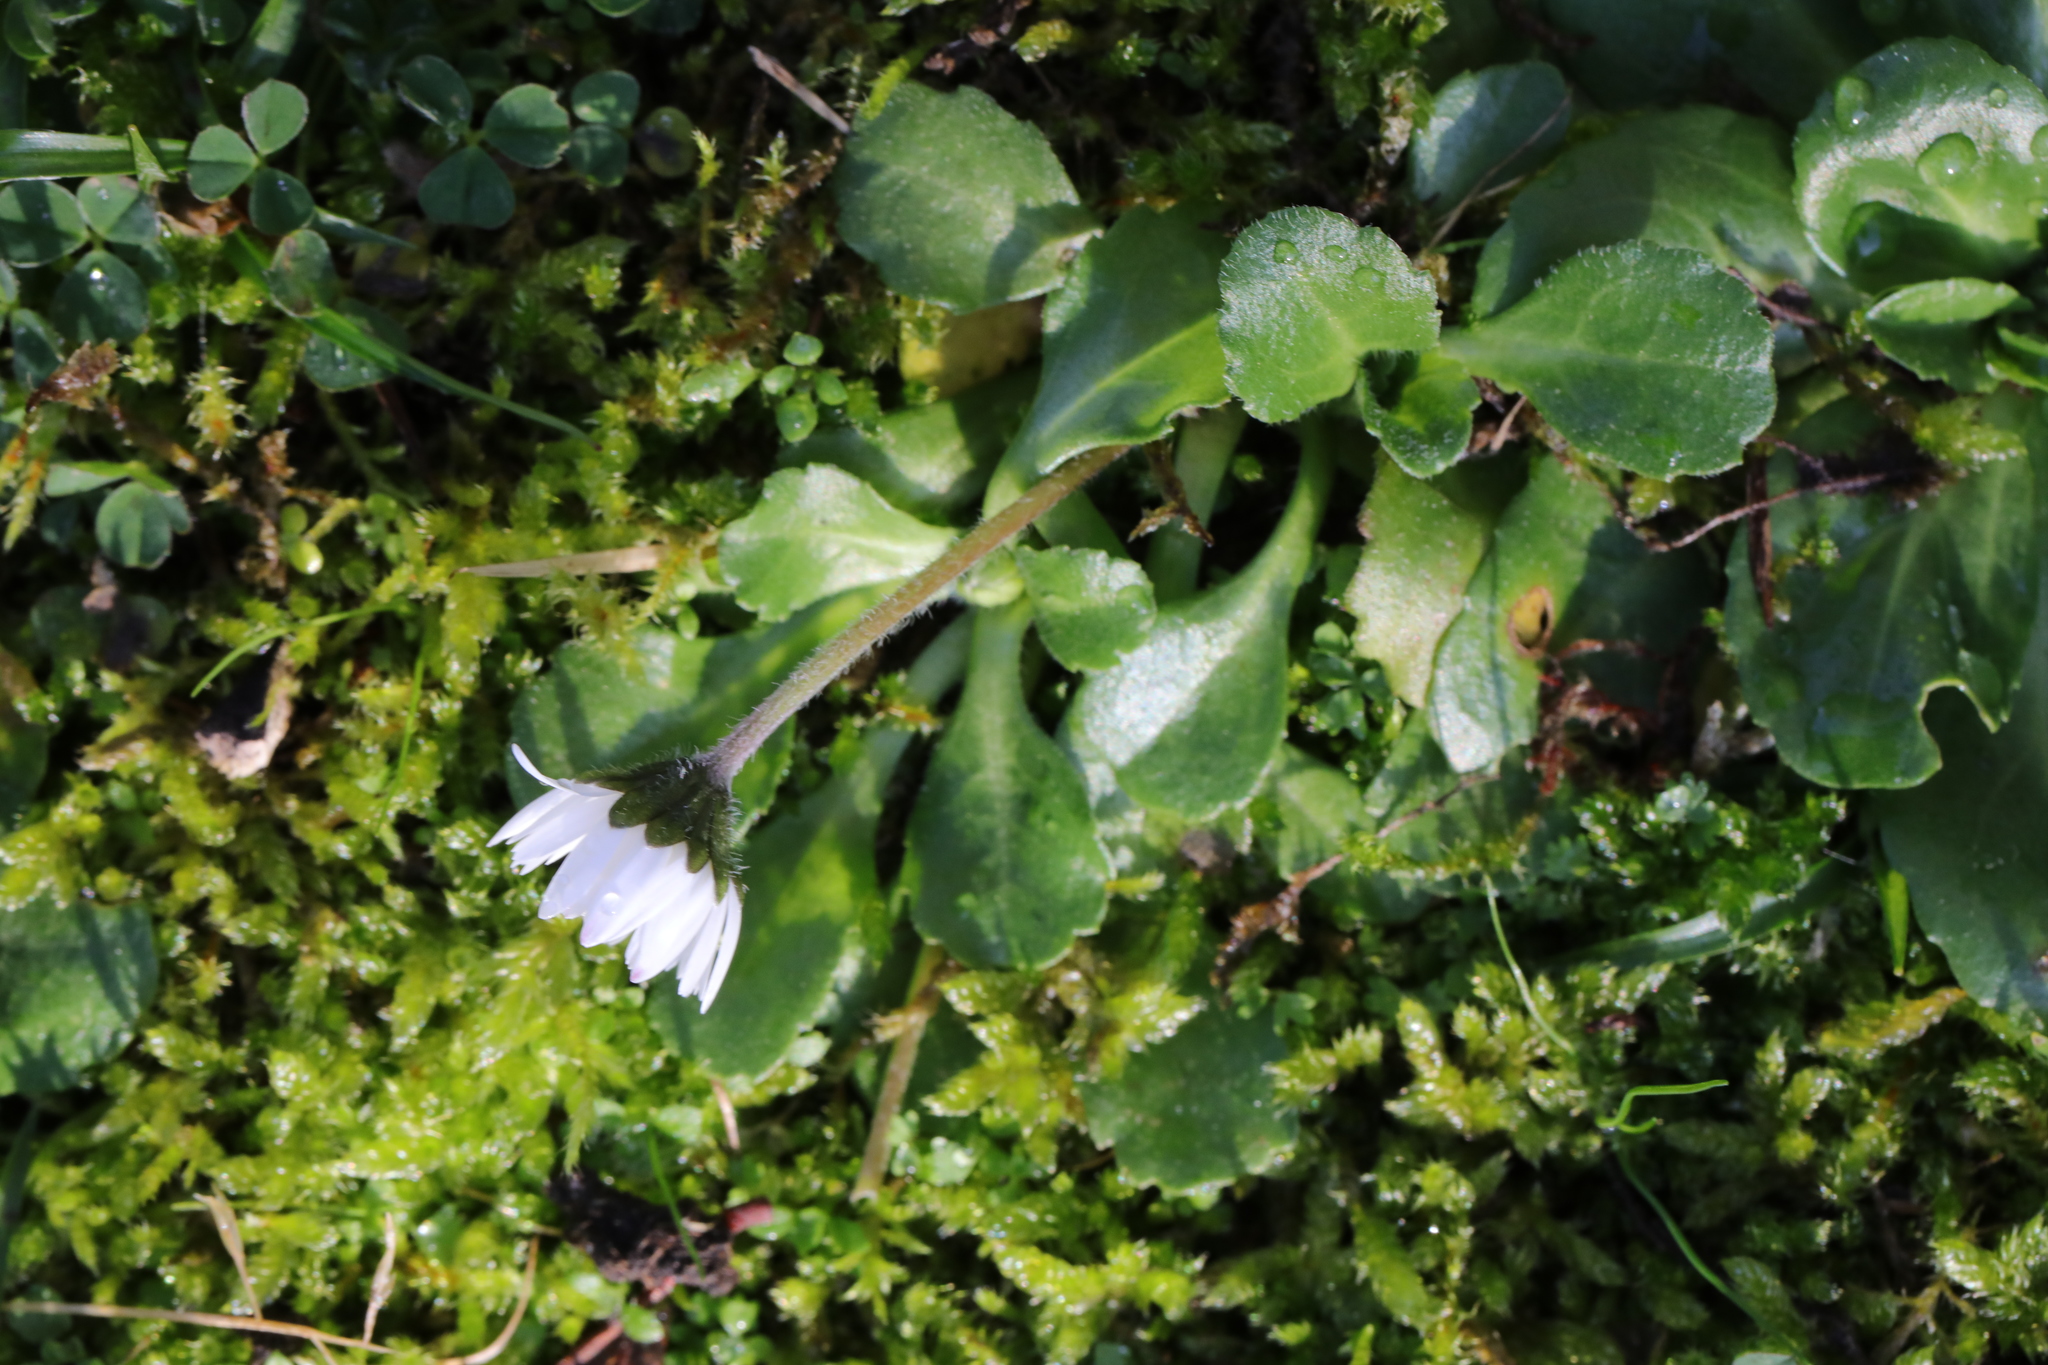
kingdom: Plantae
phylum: Tracheophyta
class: Magnoliopsida
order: Asterales
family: Asteraceae
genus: Bellis
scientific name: Bellis perennis
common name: Lawndaisy
